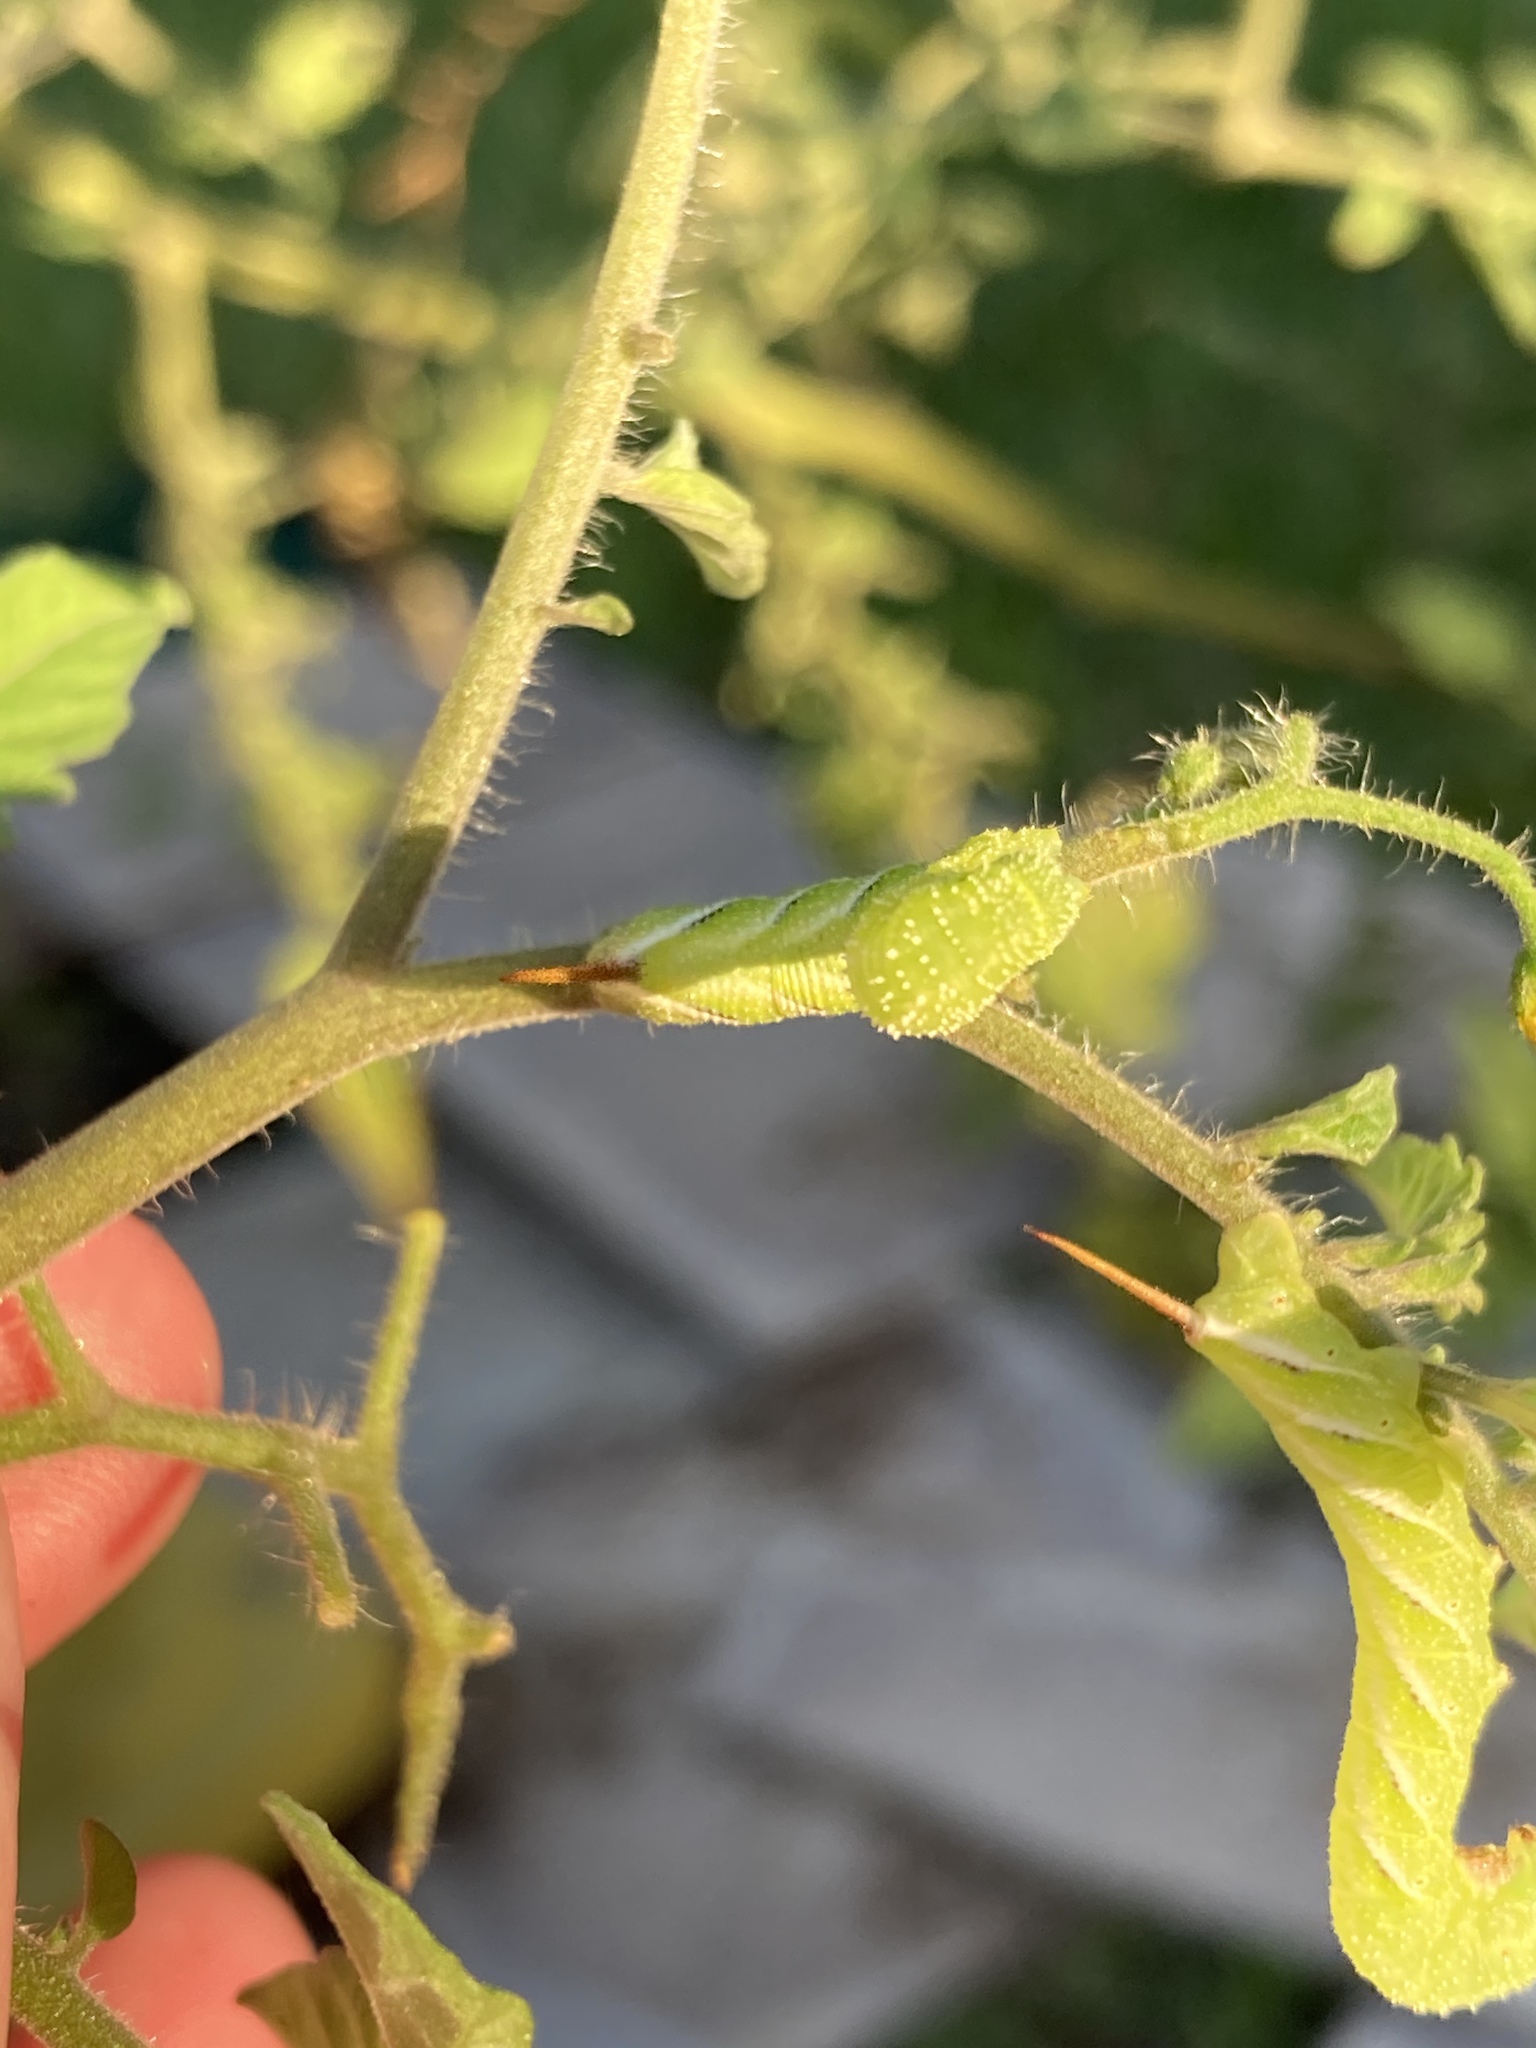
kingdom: Animalia
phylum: Arthropoda
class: Insecta
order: Lepidoptera
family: Sphingidae
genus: Manduca
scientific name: Manduca sexta
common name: Carolina sphinx
